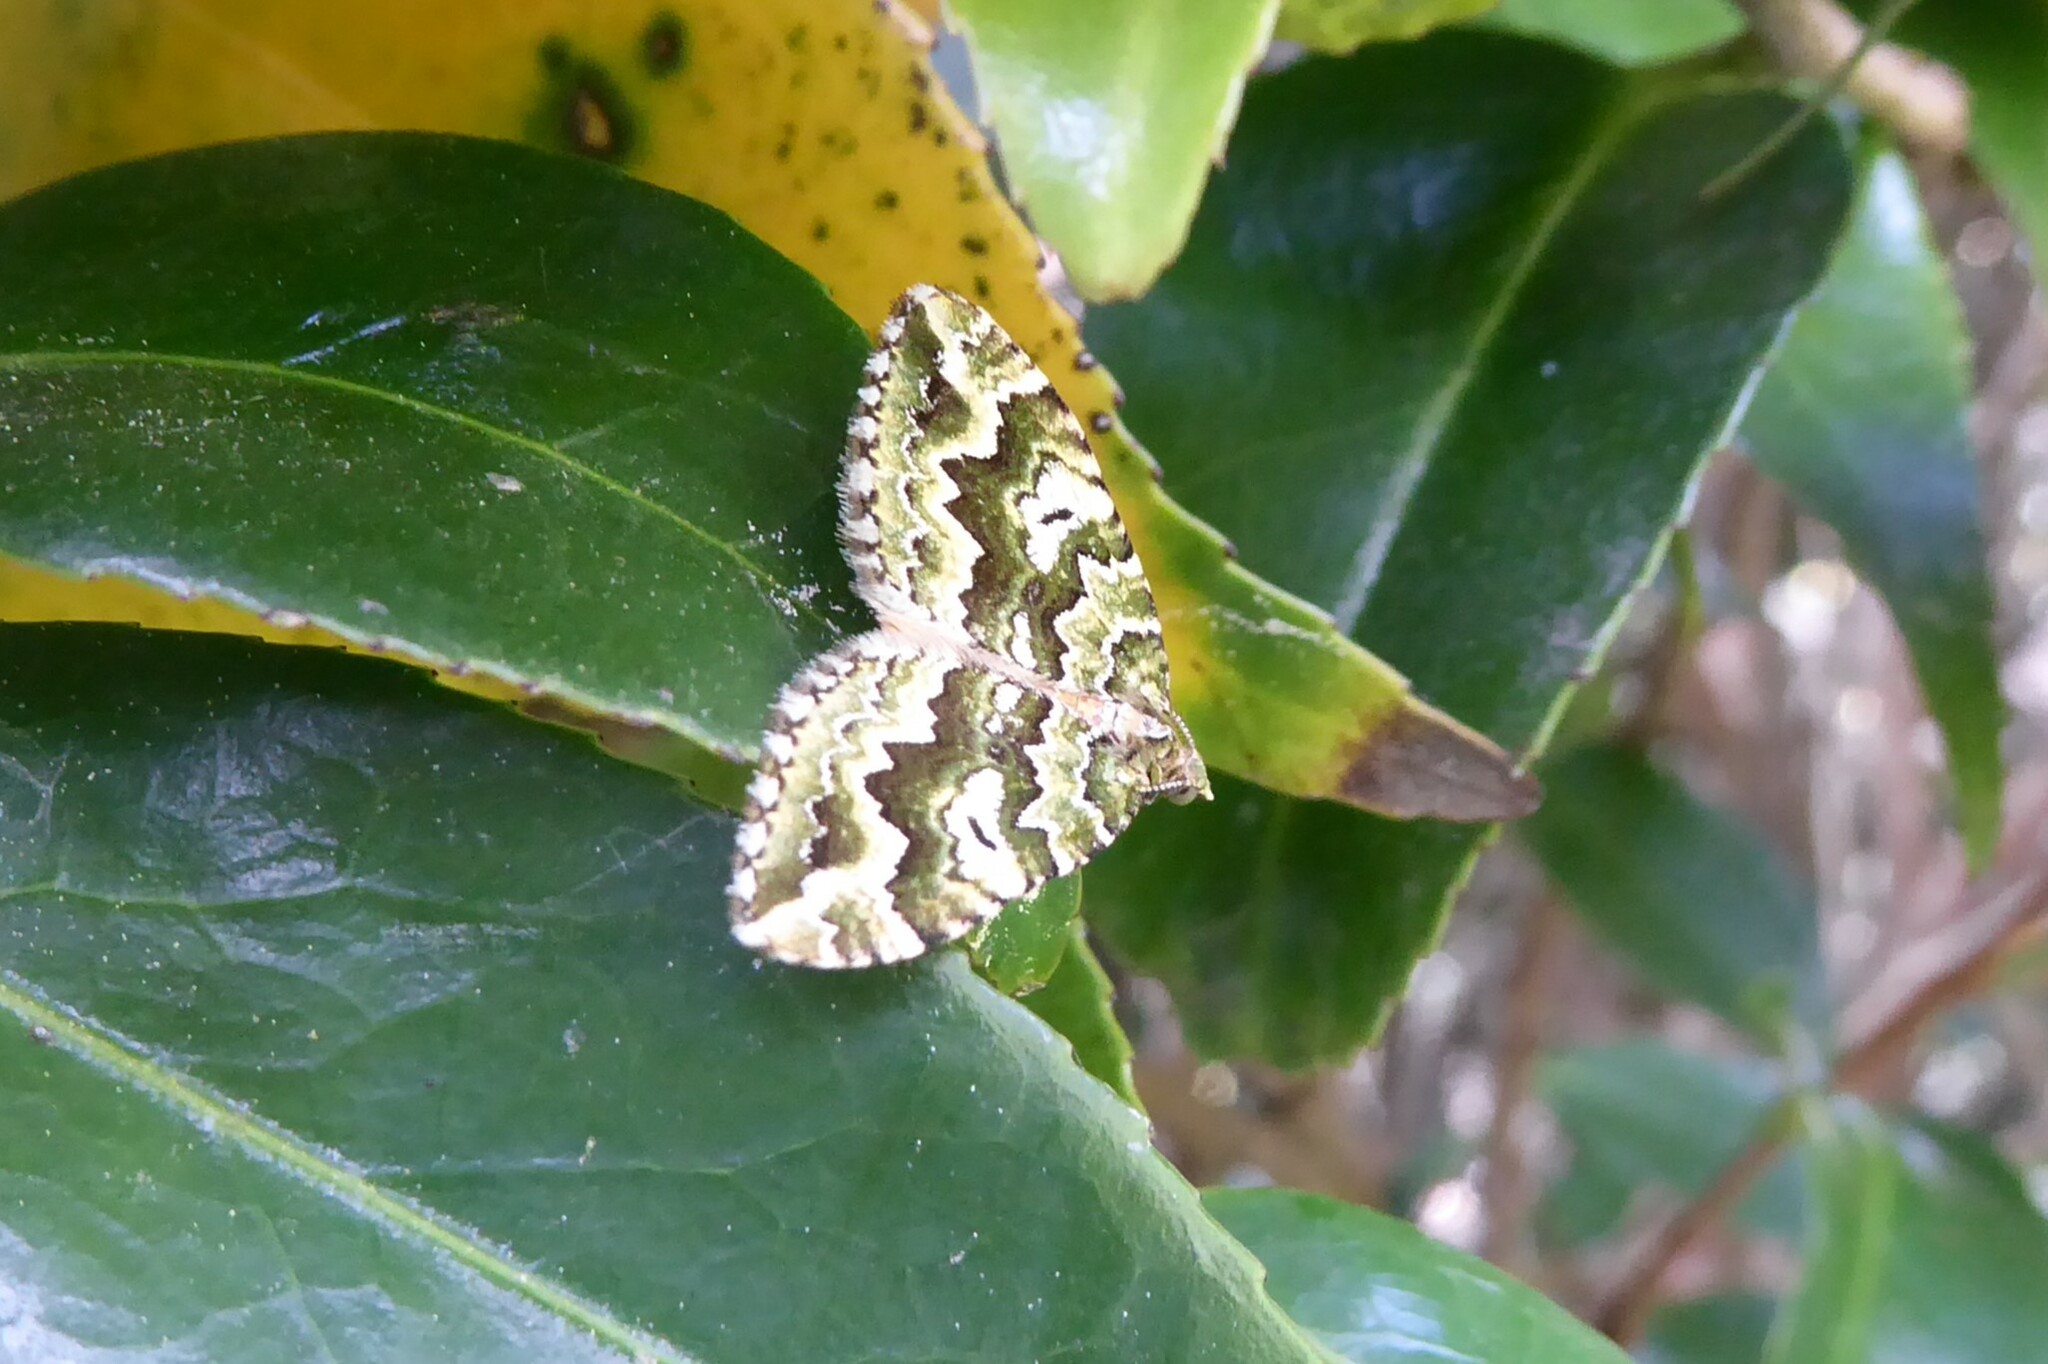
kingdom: Animalia
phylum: Arthropoda
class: Insecta
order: Lepidoptera
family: Geometridae
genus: Asaphodes
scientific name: Asaphodes beata
